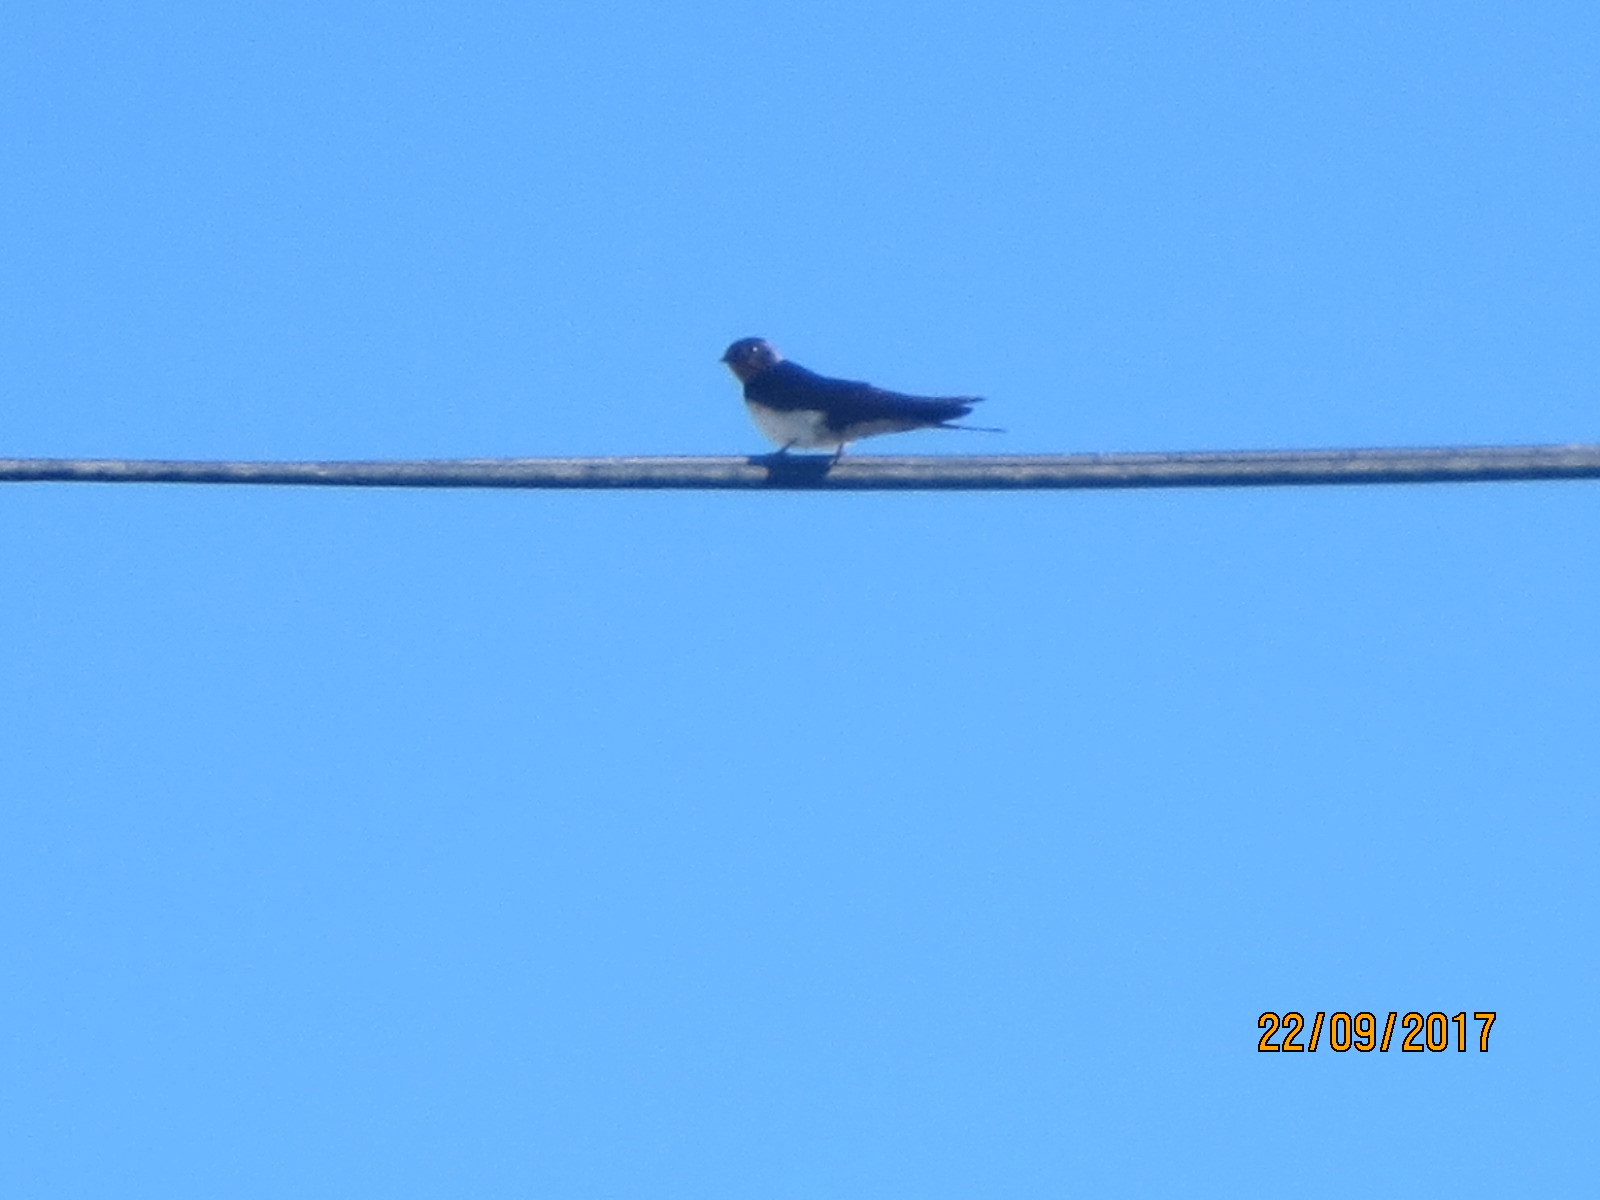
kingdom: Animalia
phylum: Chordata
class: Aves
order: Passeriformes
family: Hirundinidae
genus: Hirundo
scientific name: Hirundo rustica
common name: Barn swallow
